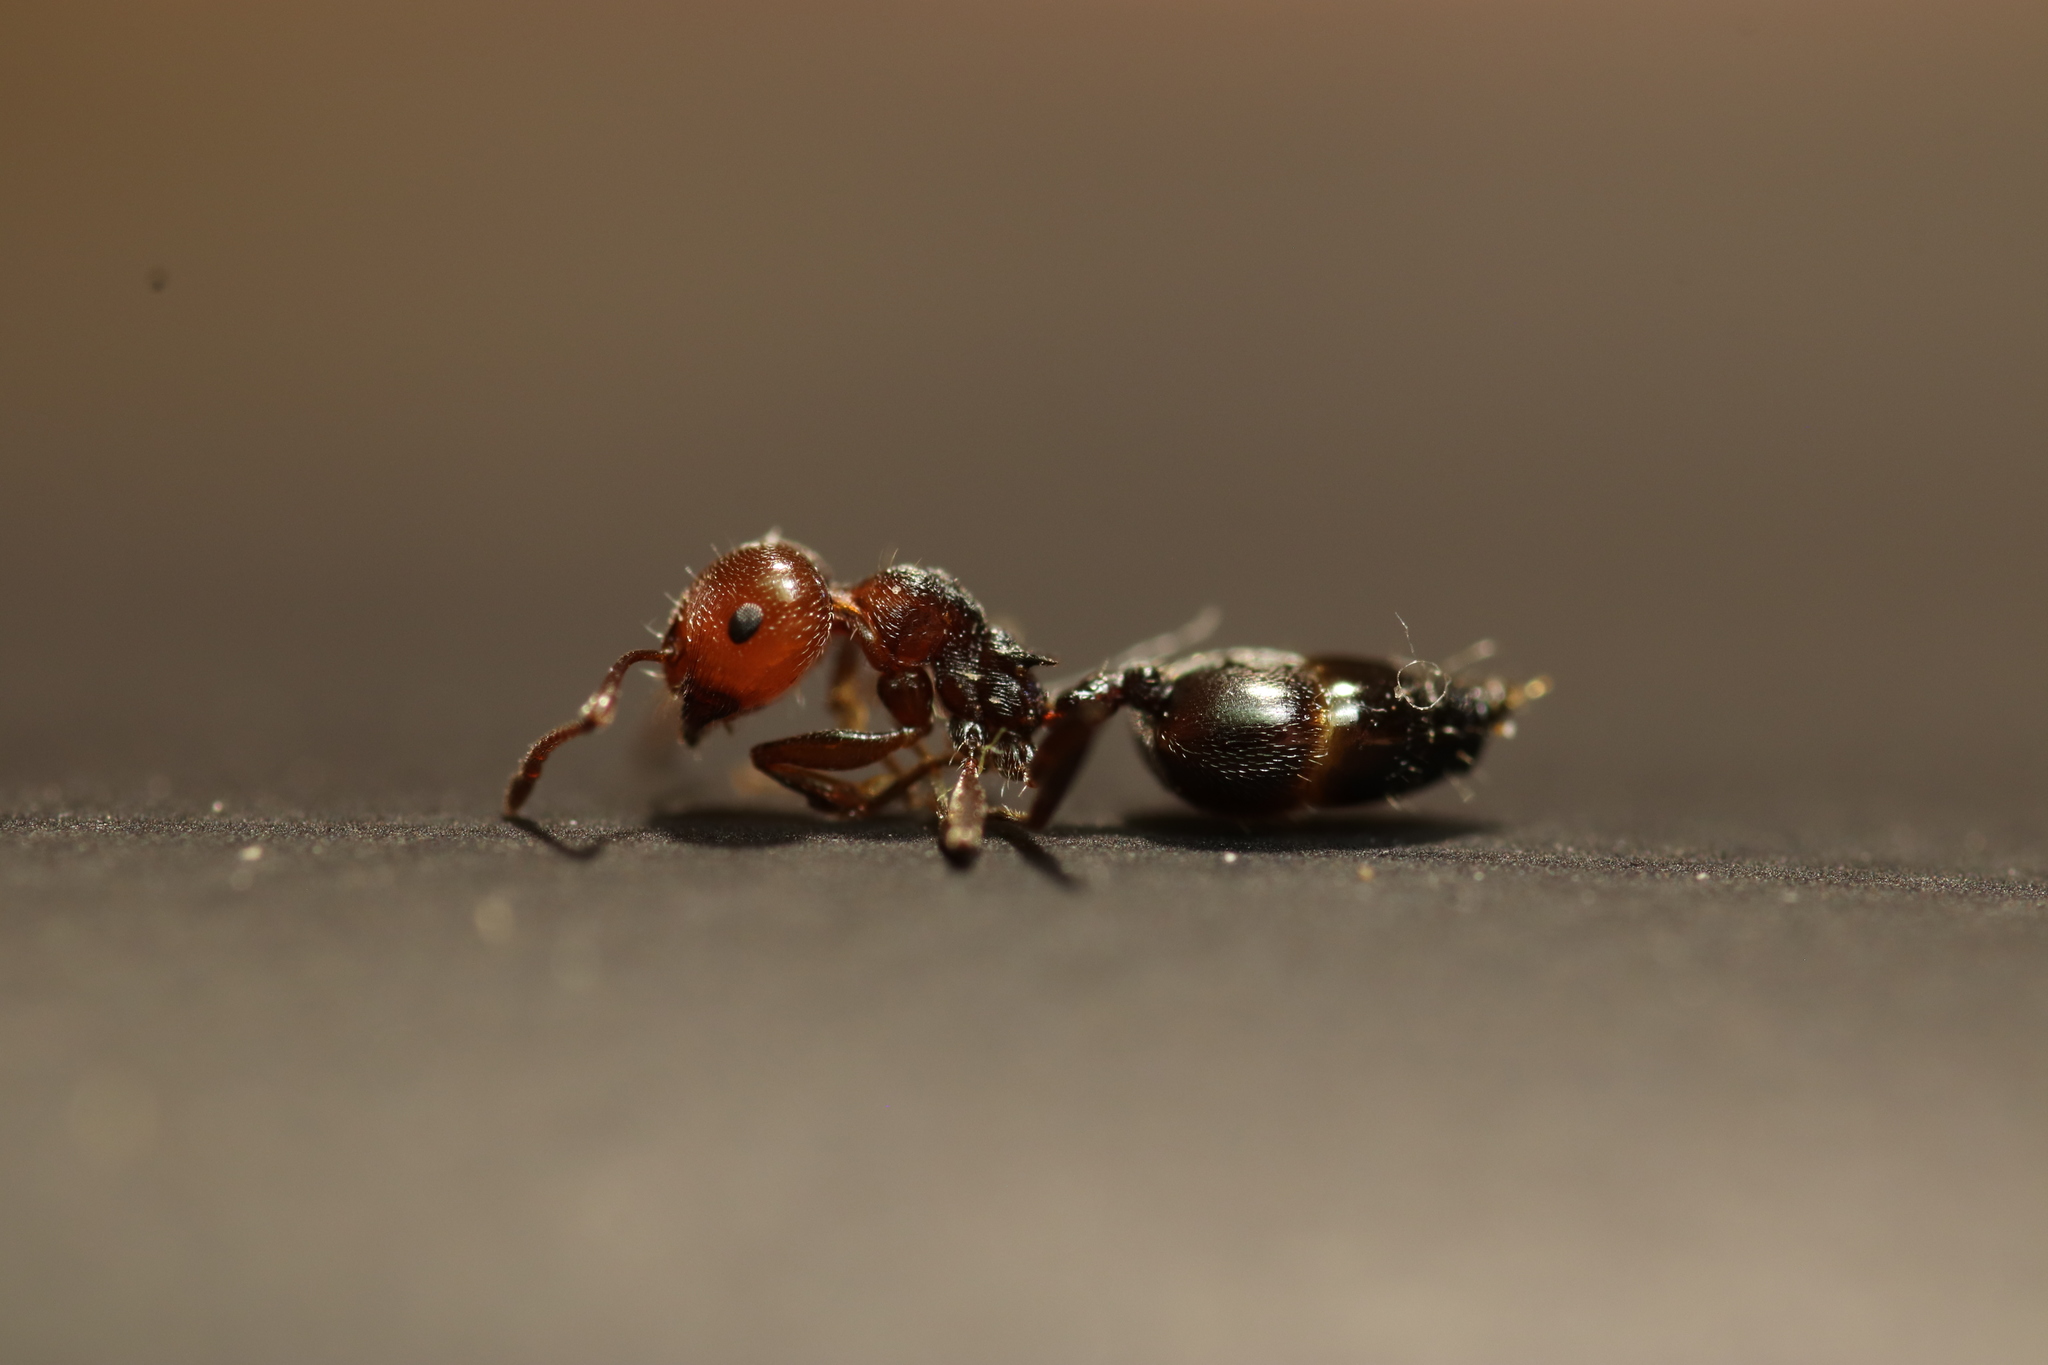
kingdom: Animalia
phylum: Arthropoda
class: Insecta
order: Hymenoptera
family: Formicidae
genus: Crematogaster
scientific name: Crematogaster scutellaris
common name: Fourmi du liège
